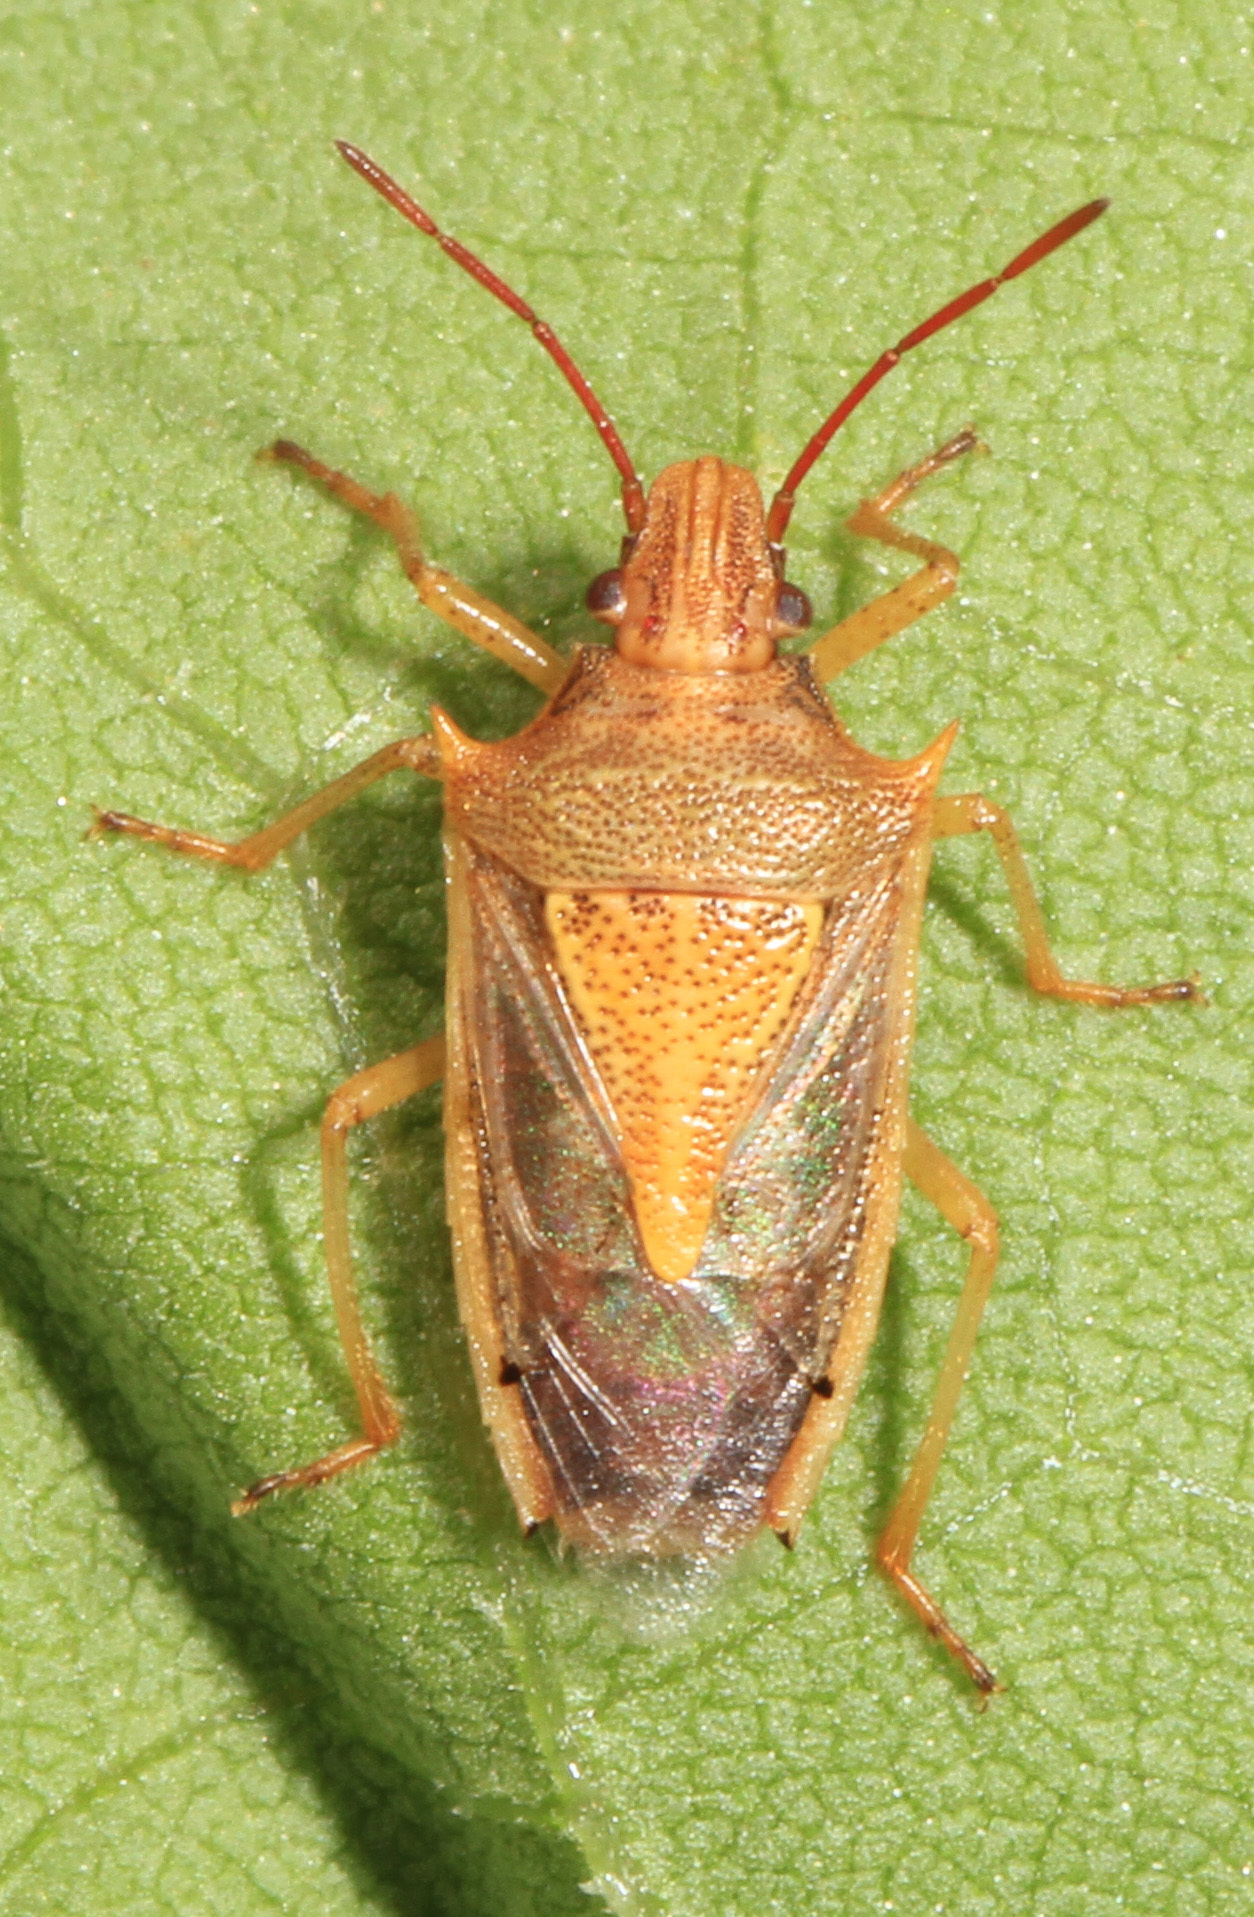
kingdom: Animalia
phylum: Arthropoda
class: Insecta
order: Hemiptera
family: Pentatomidae
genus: Oebalus
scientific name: Oebalus pugnax
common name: Rice stink bug
